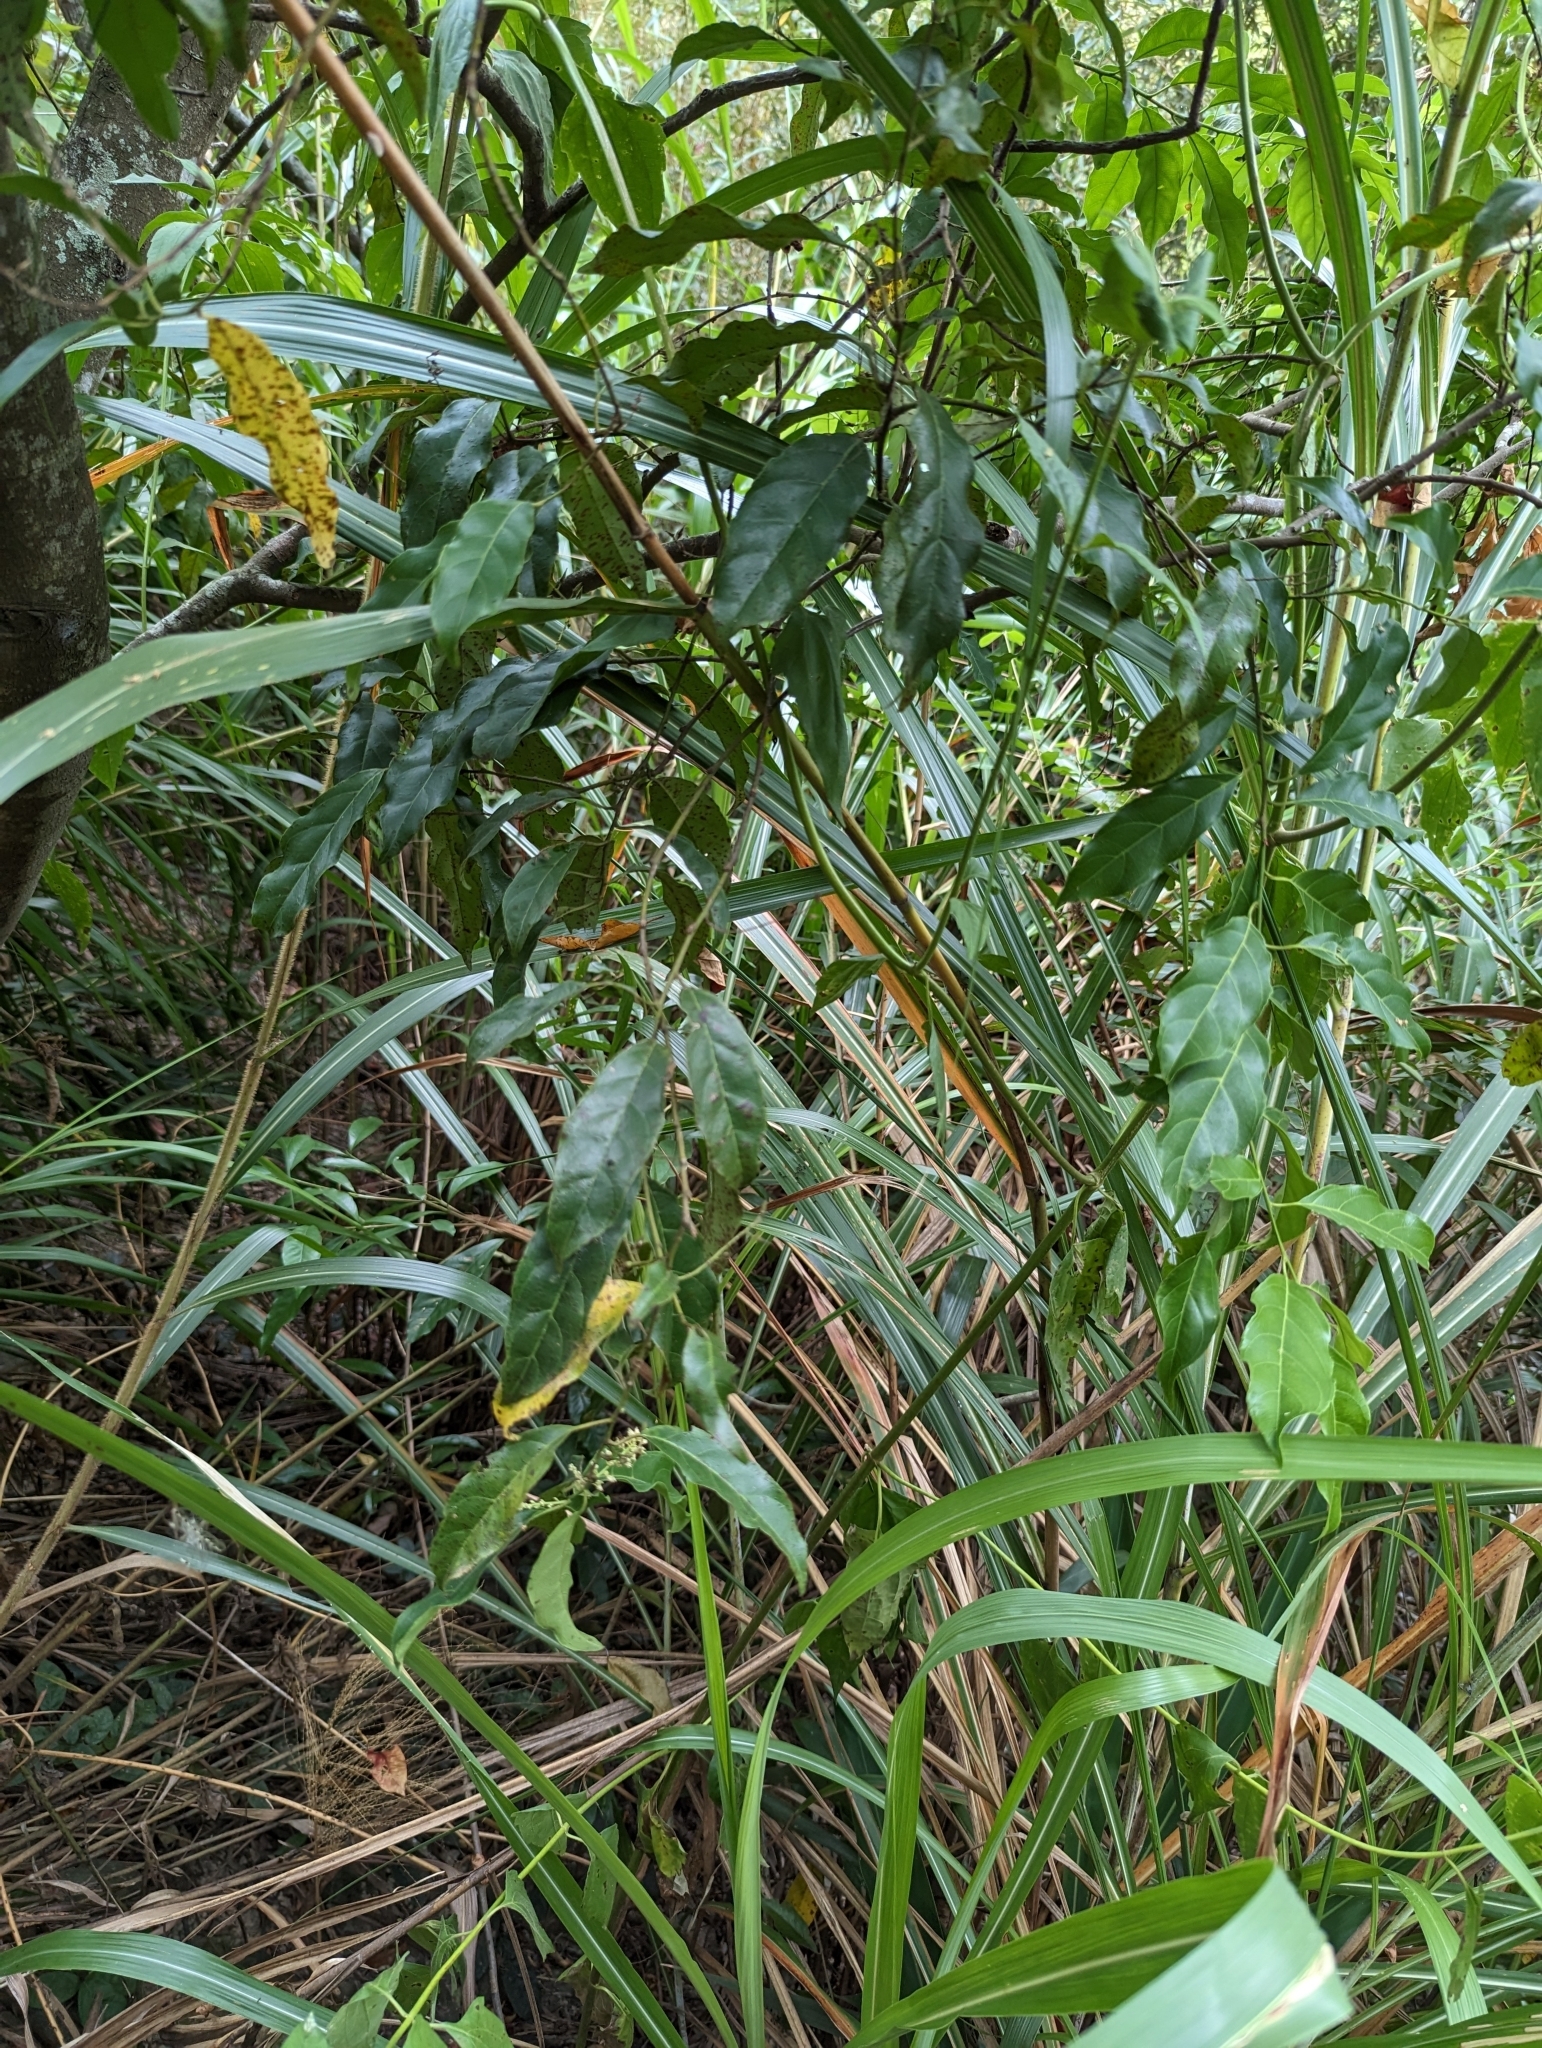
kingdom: Plantae
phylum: Tracheophyta
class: Magnoliopsida
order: Saxifragales
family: Iteaceae
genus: Itea
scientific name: Itea parviflora
